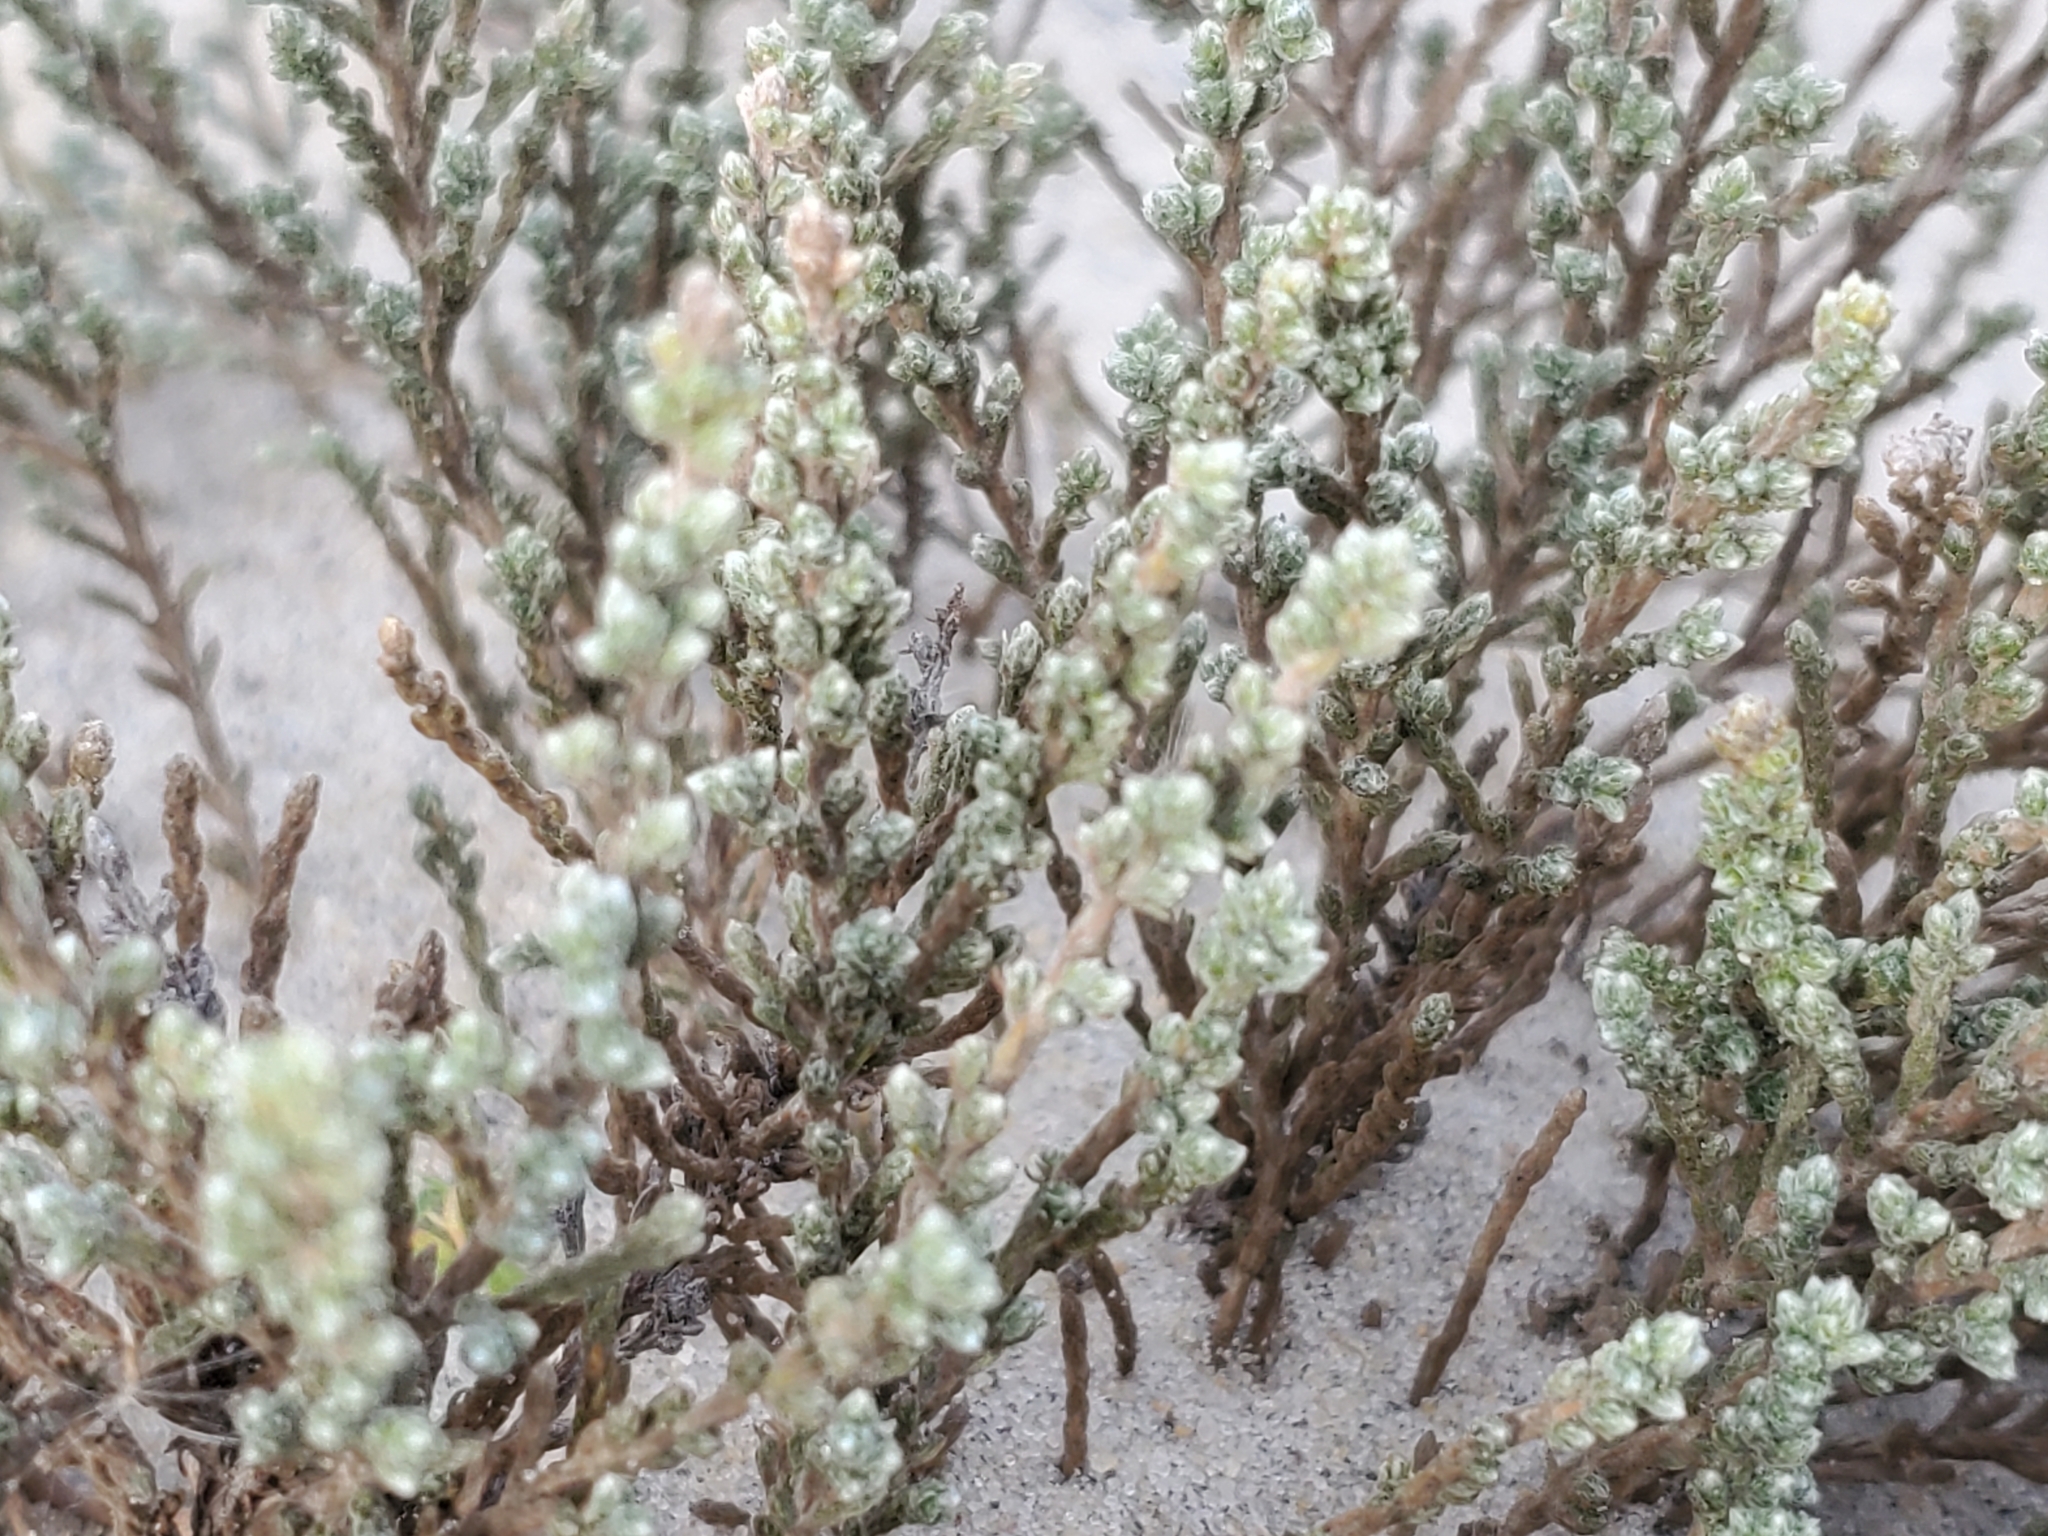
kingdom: Plantae
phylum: Tracheophyta
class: Magnoliopsida
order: Malvales
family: Cistaceae
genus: Hudsonia
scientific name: Hudsonia tomentosa
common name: Beach-heath
